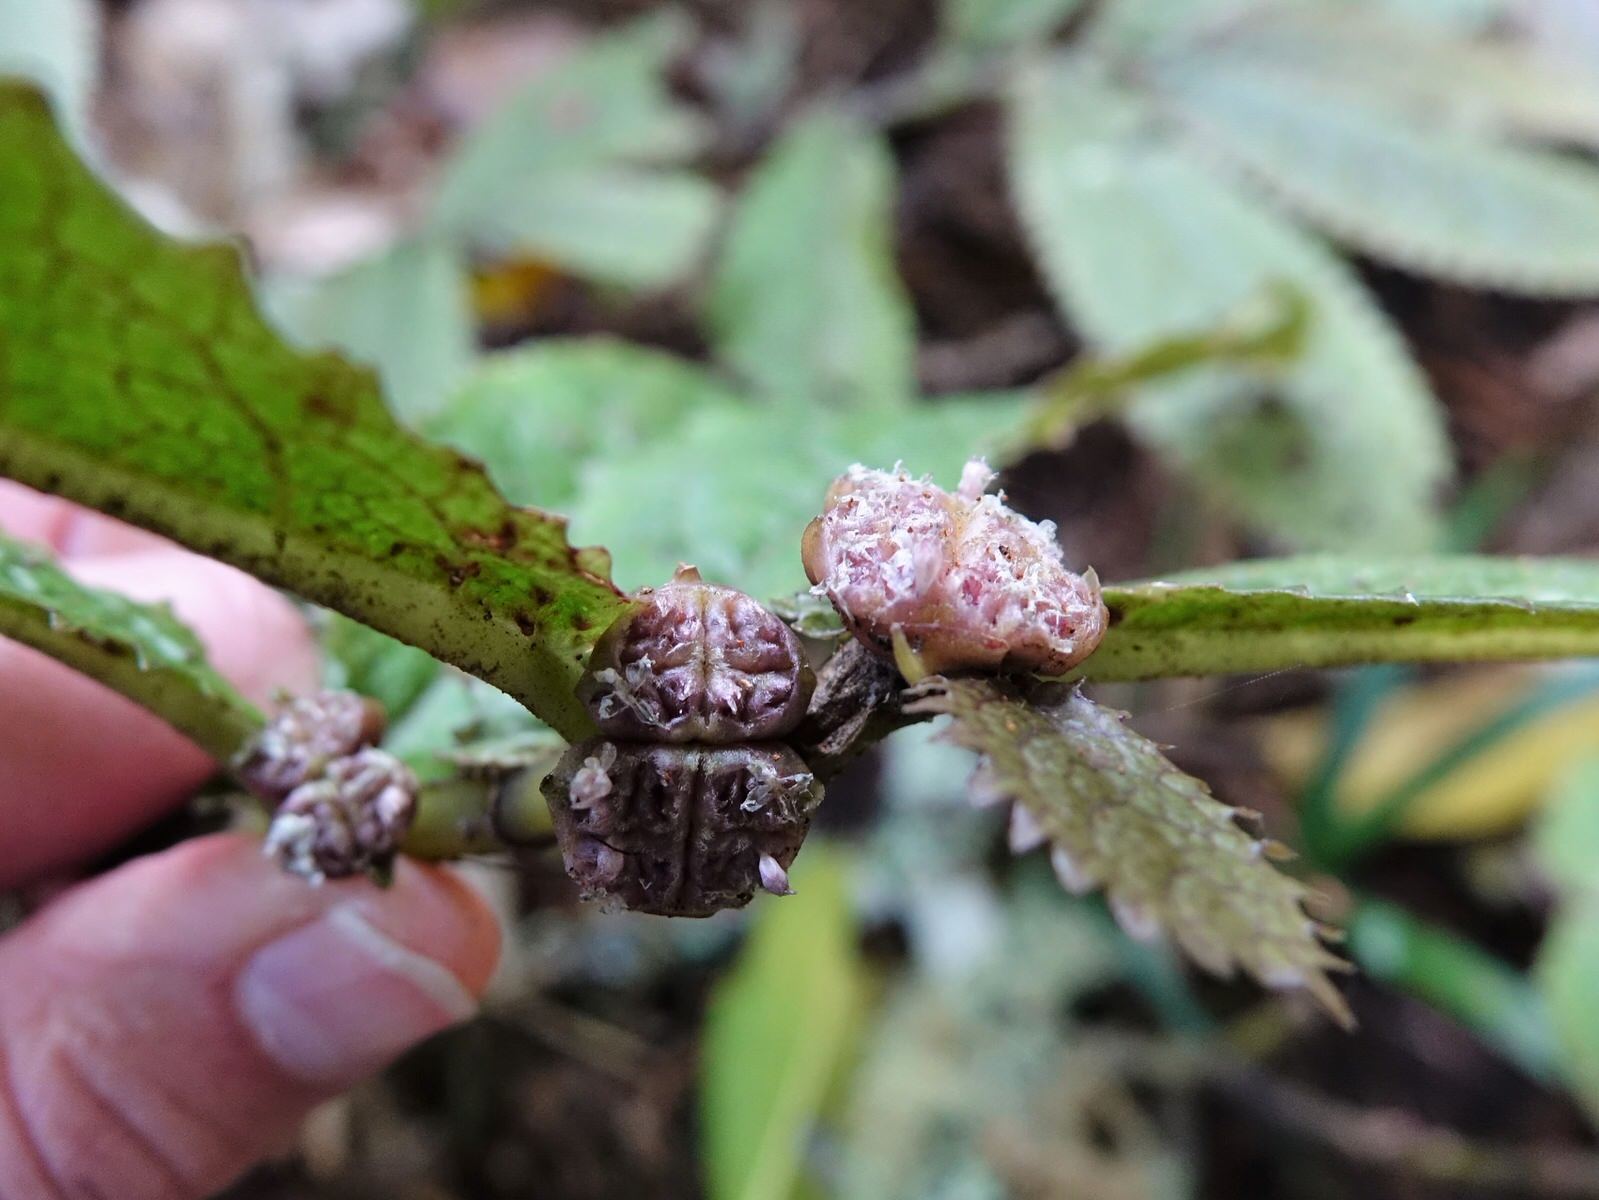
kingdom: Plantae
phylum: Tracheophyta
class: Magnoliopsida
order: Rosales
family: Urticaceae
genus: Elatostema
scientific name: Elatostema rugosum
